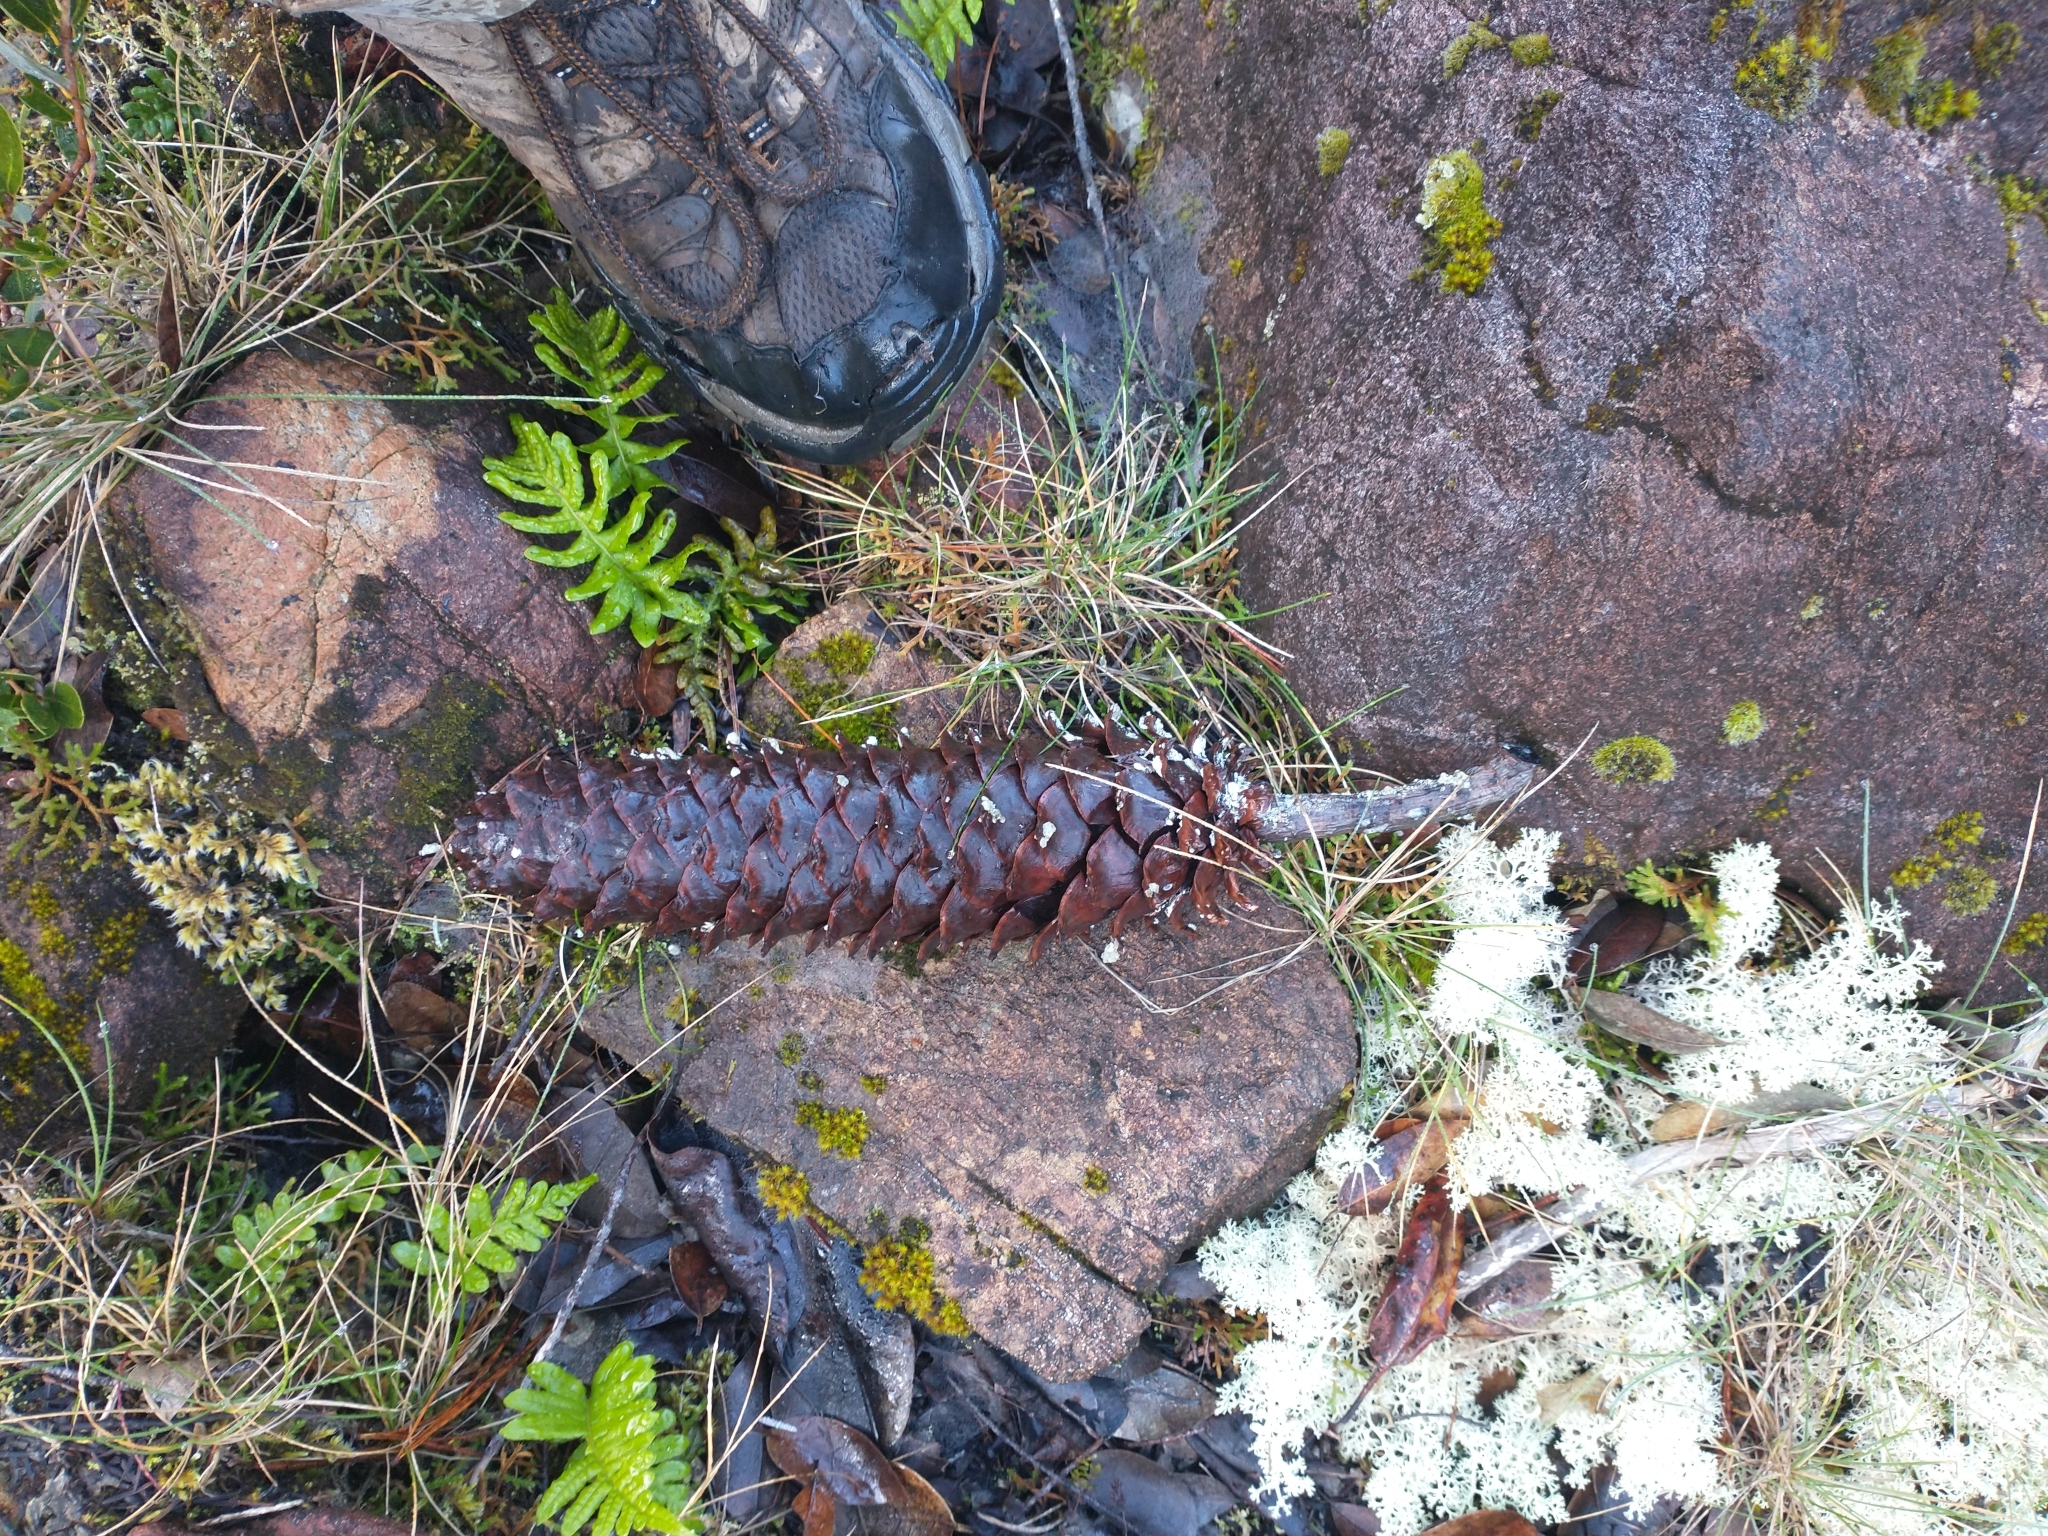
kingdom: Plantae
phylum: Tracheophyta
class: Pinopsida
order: Pinales
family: Pinaceae
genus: Pinus
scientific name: Pinus lambertiana
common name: Sugar pine
